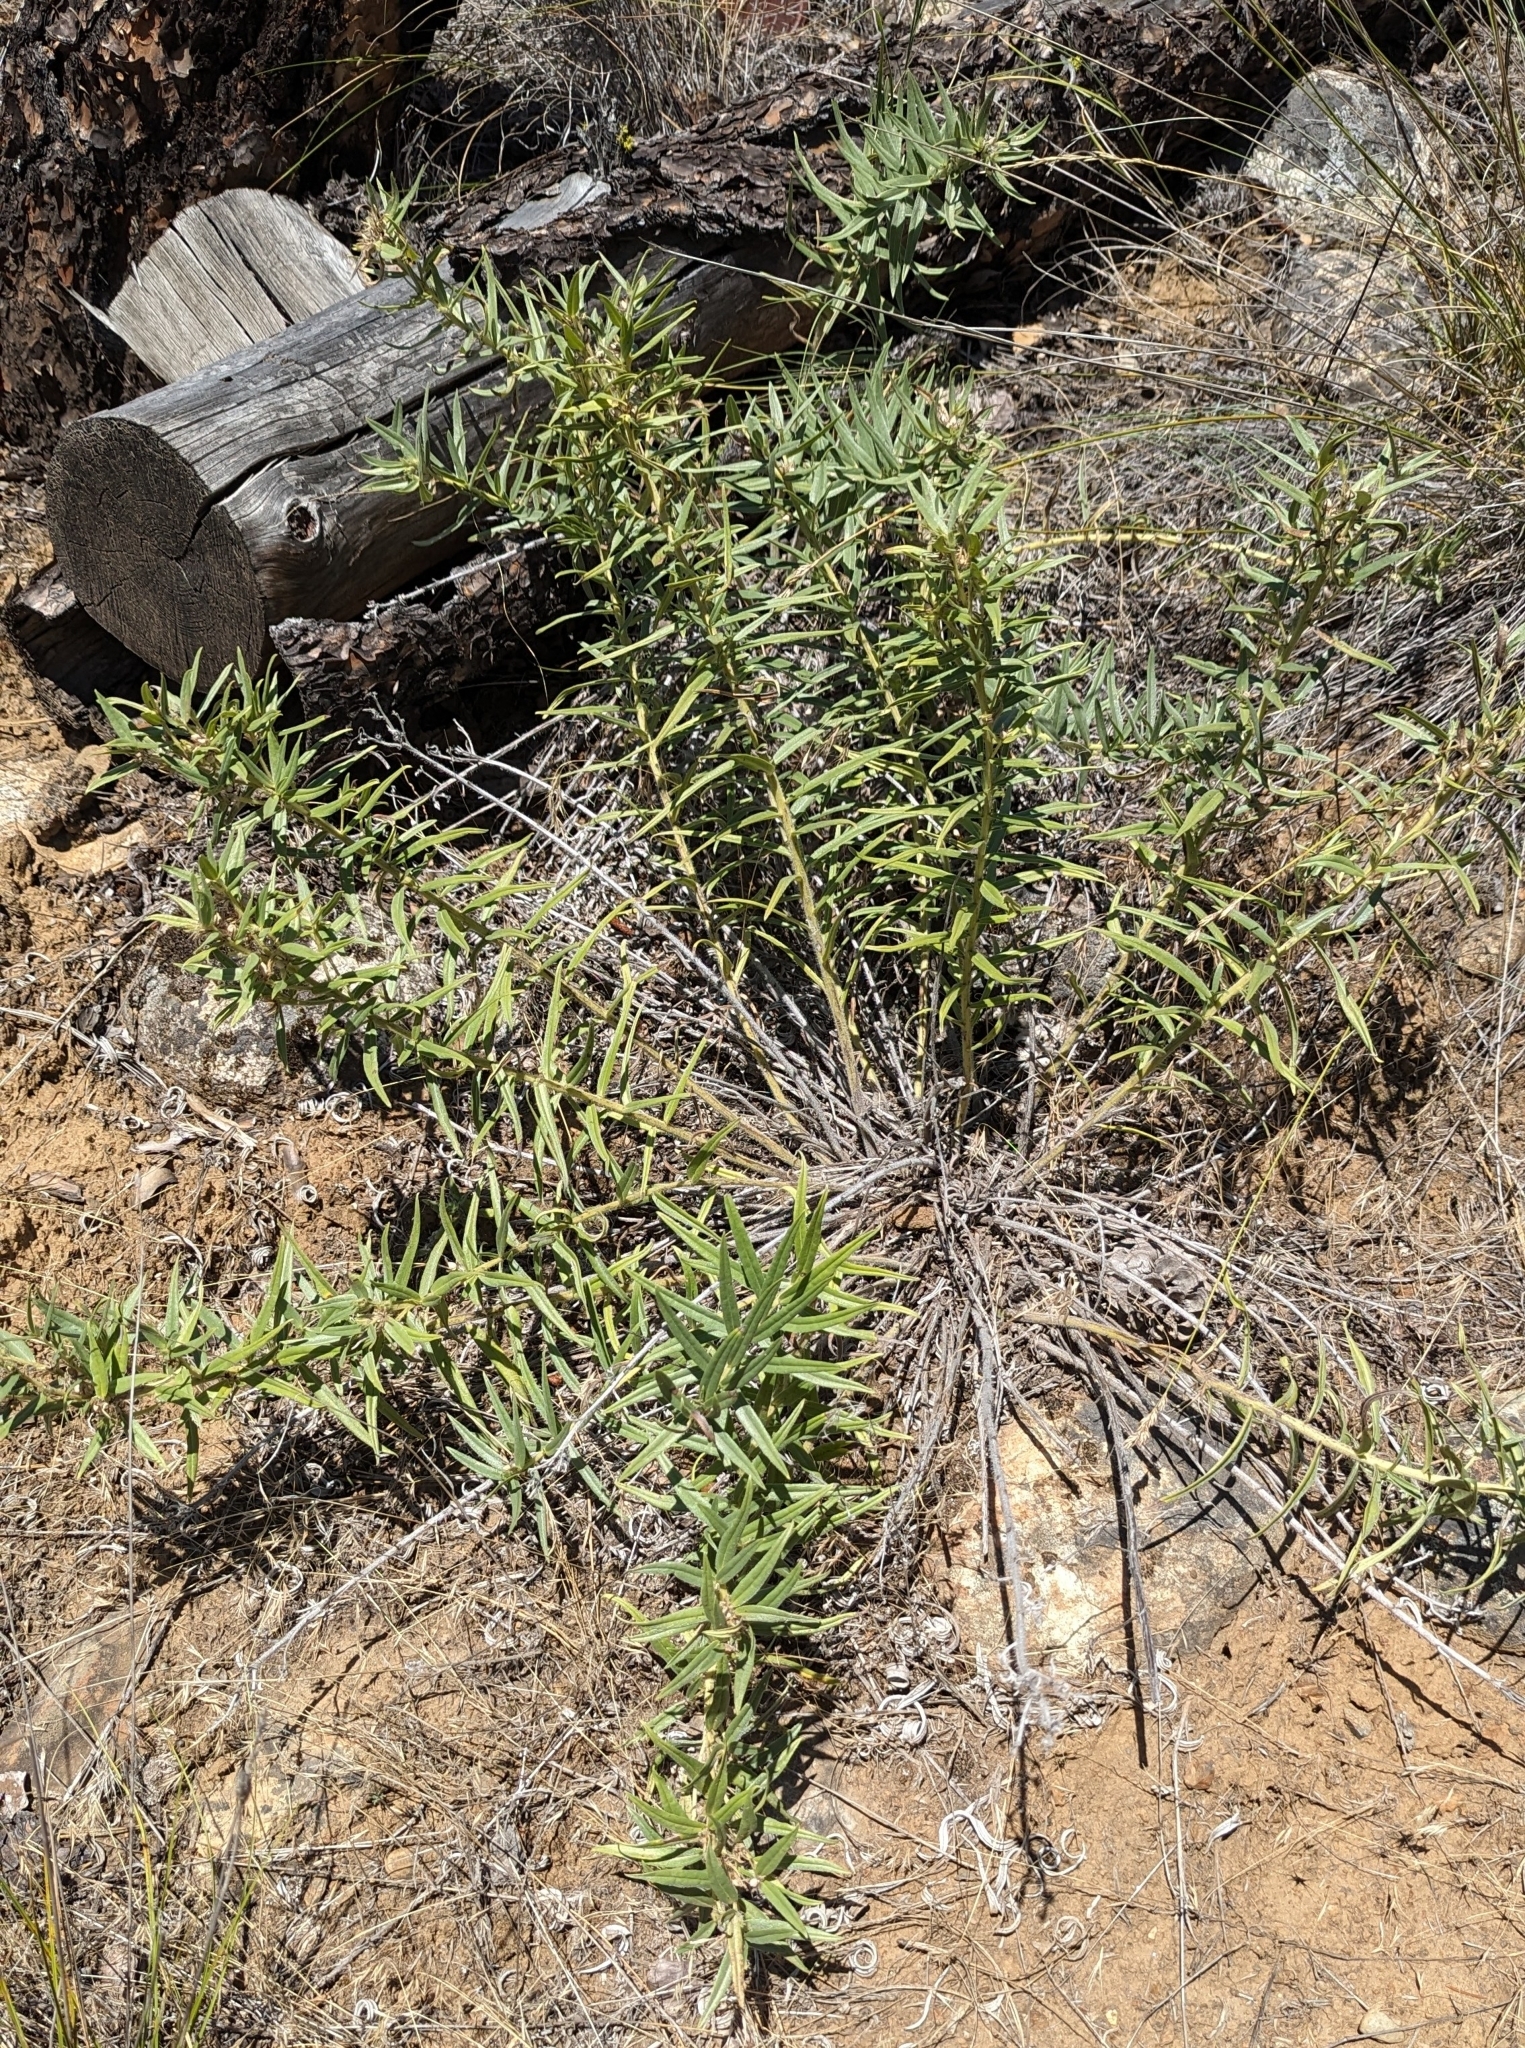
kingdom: Plantae
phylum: Tracheophyta
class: Magnoliopsida
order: Boraginales
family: Boraginaceae
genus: Lithospermum
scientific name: Lithospermum ruderale
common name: Western gromwell
